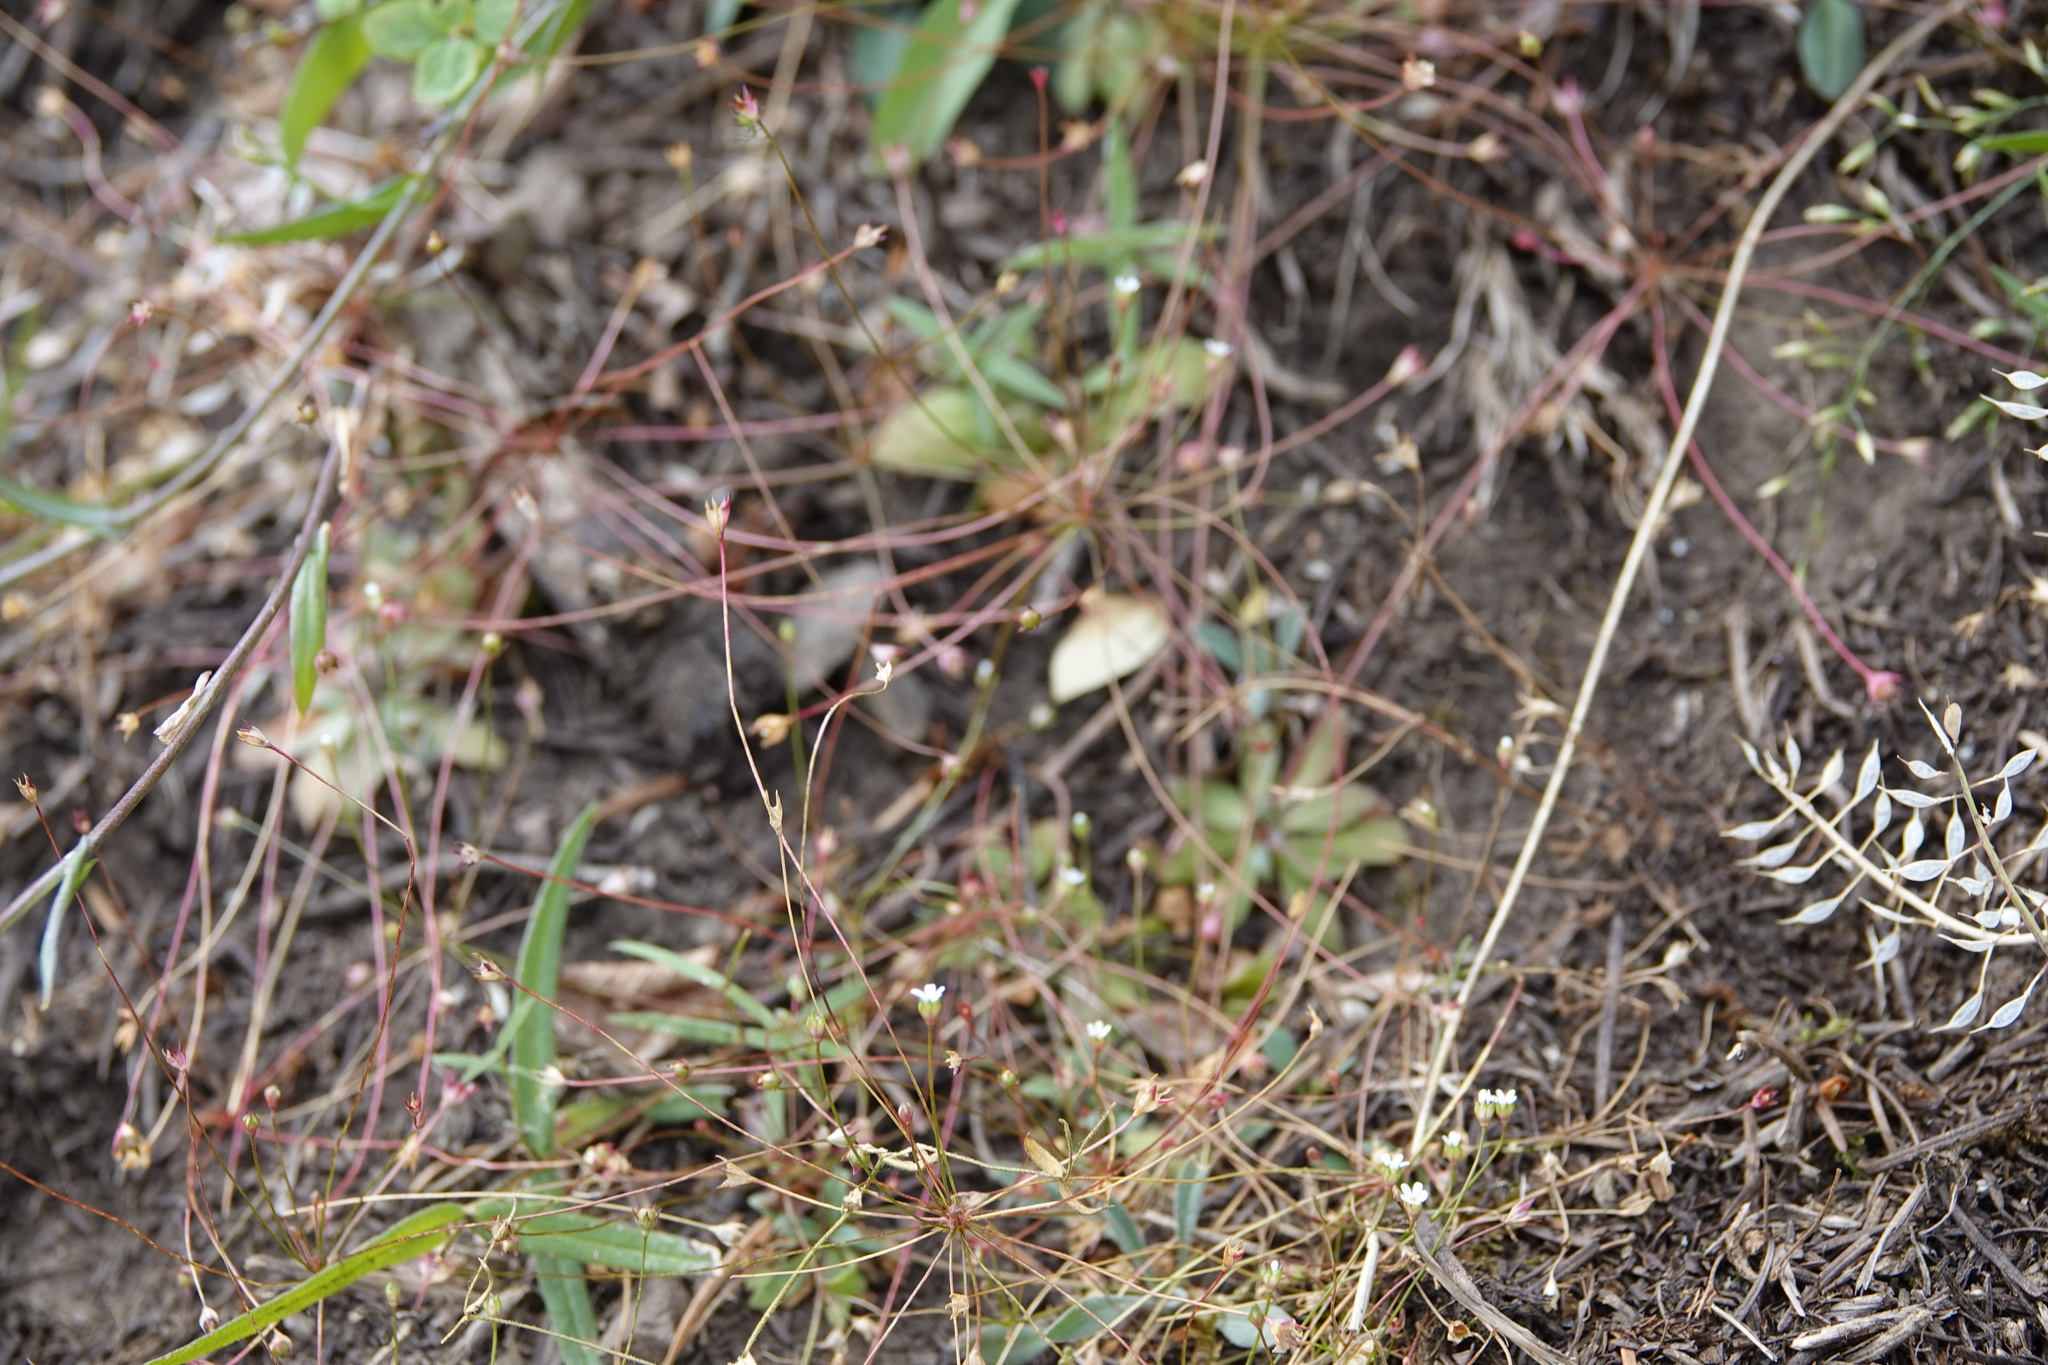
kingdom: Plantae
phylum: Tracheophyta
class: Magnoliopsida
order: Ericales
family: Primulaceae
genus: Androsace
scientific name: Androsace septentrionalis
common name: Hairy northern fairy-candelabra
